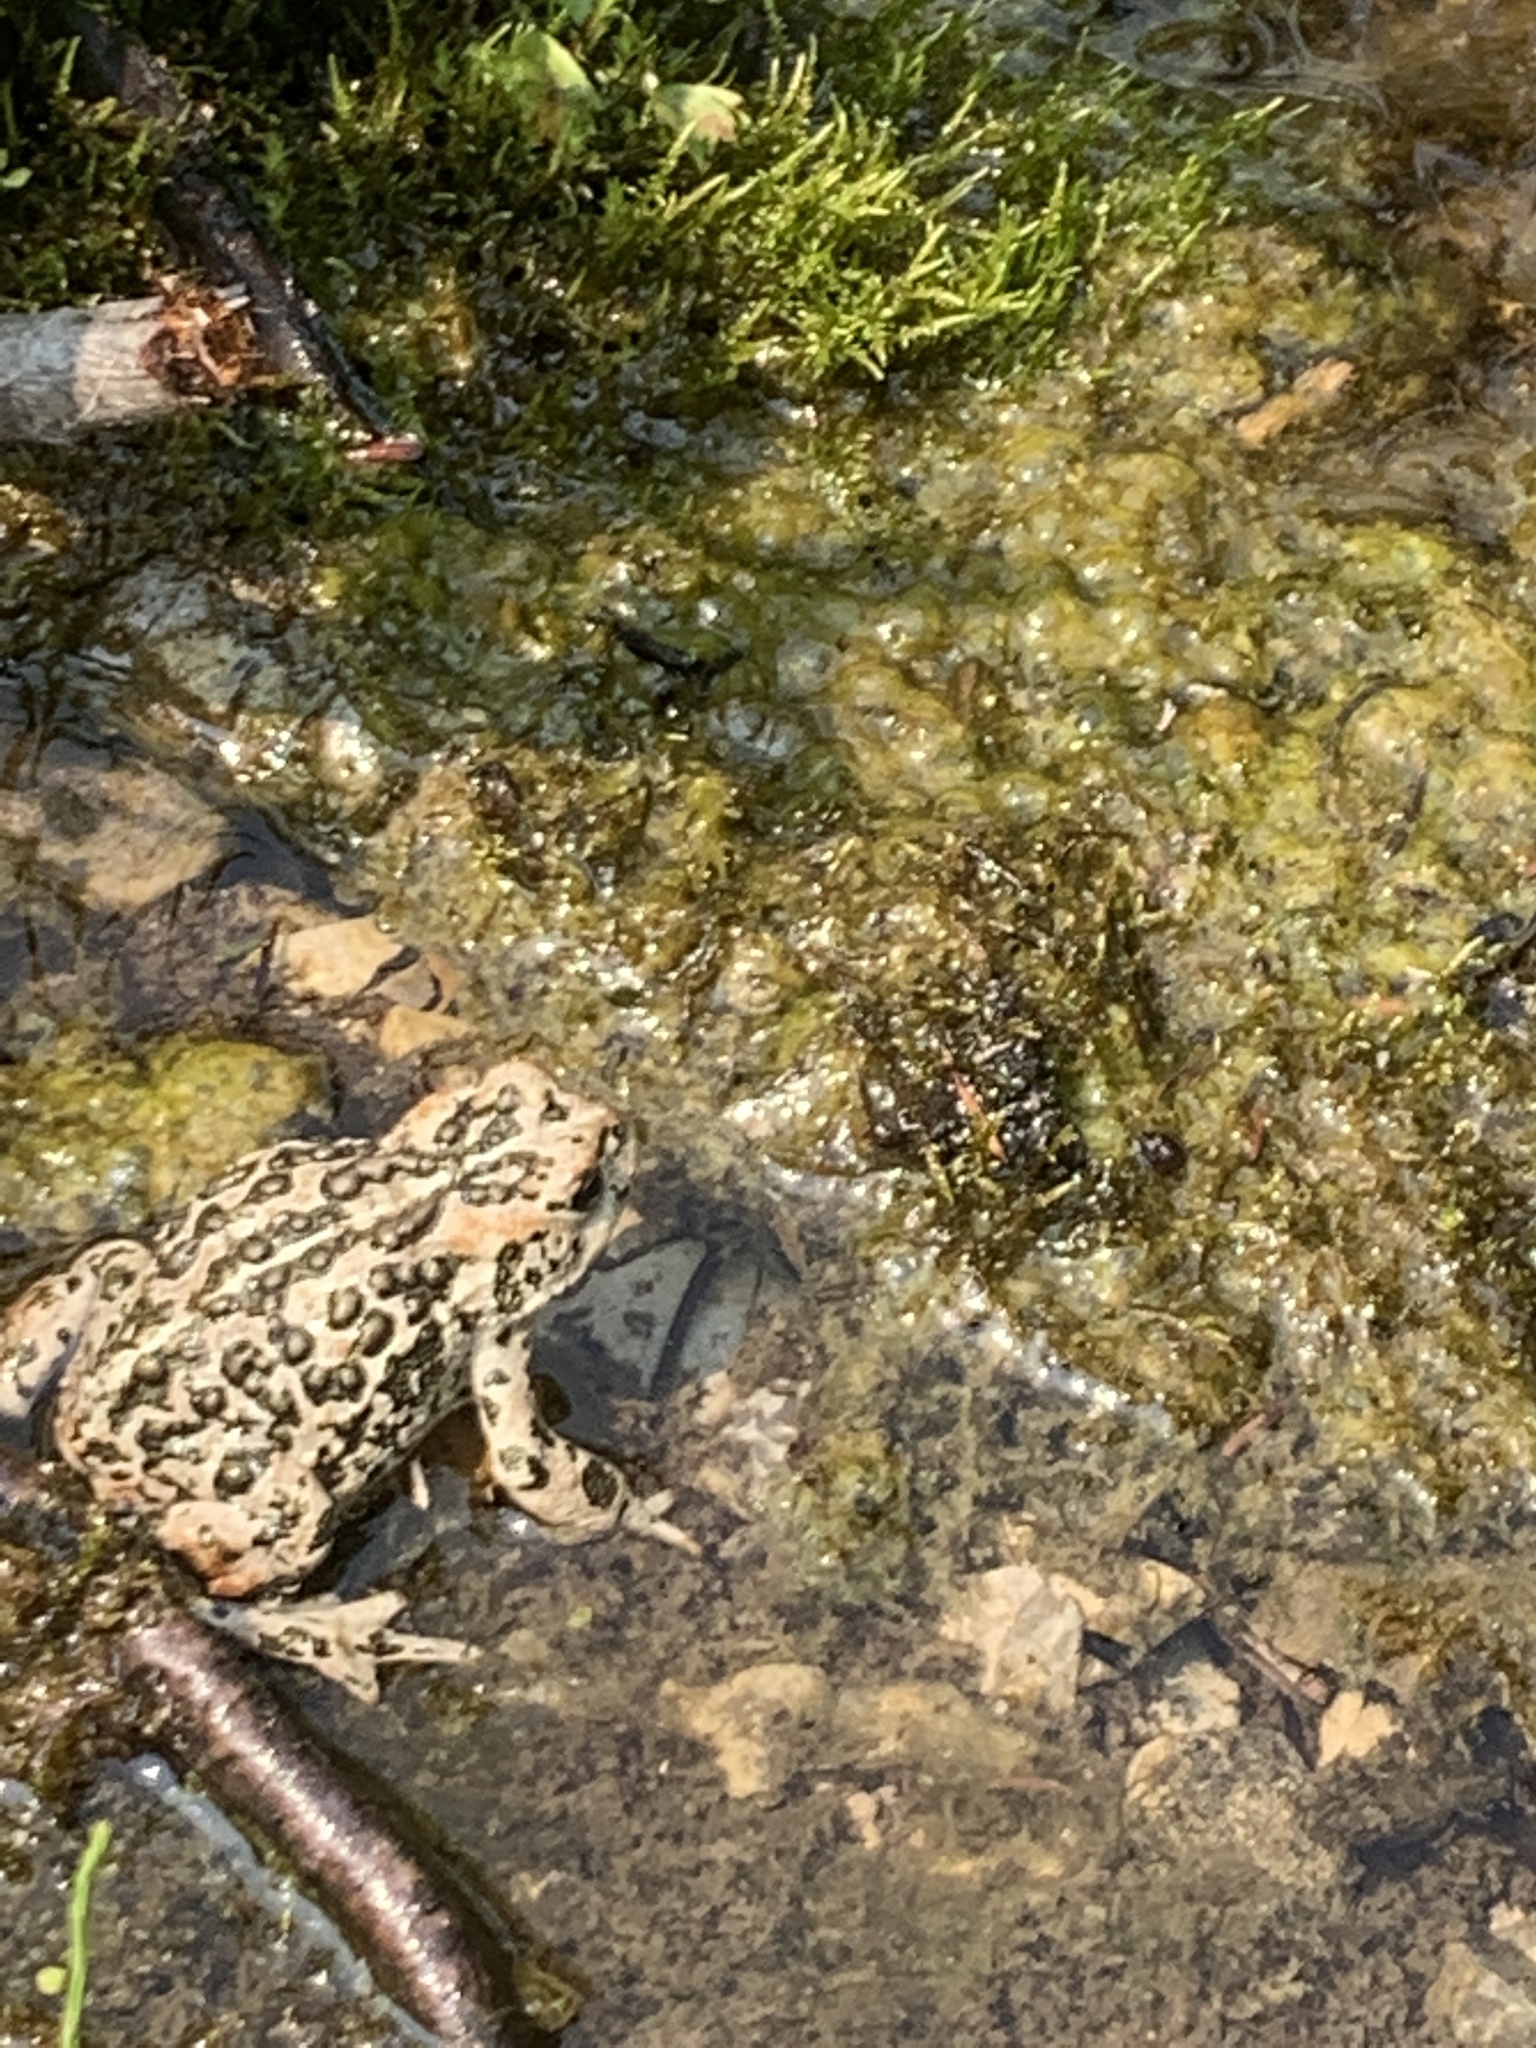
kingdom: Animalia
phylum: Chordata
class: Amphibia
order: Anura
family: Bufonidae
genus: Anaxyrus
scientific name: Anaxyrus boreas
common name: Western toad
